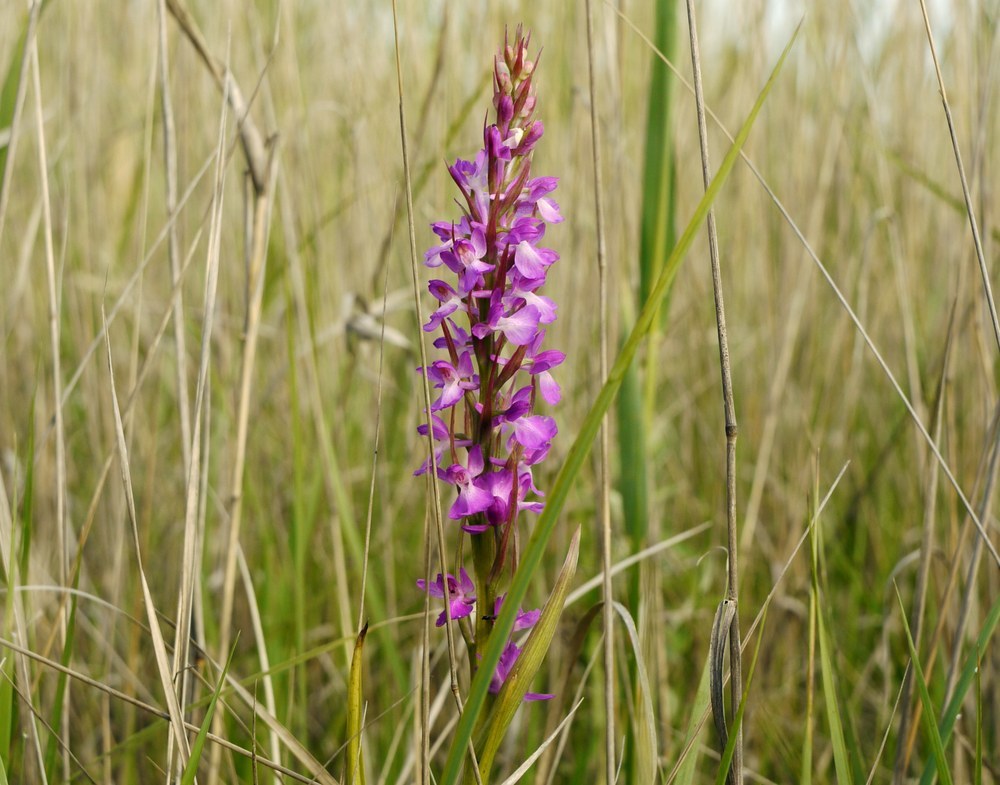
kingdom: Plantae
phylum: Tracheophyta
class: Liliopsida
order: Asparagales
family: Orchidaceae
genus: Anacamptis
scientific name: Anacamptis palustris
